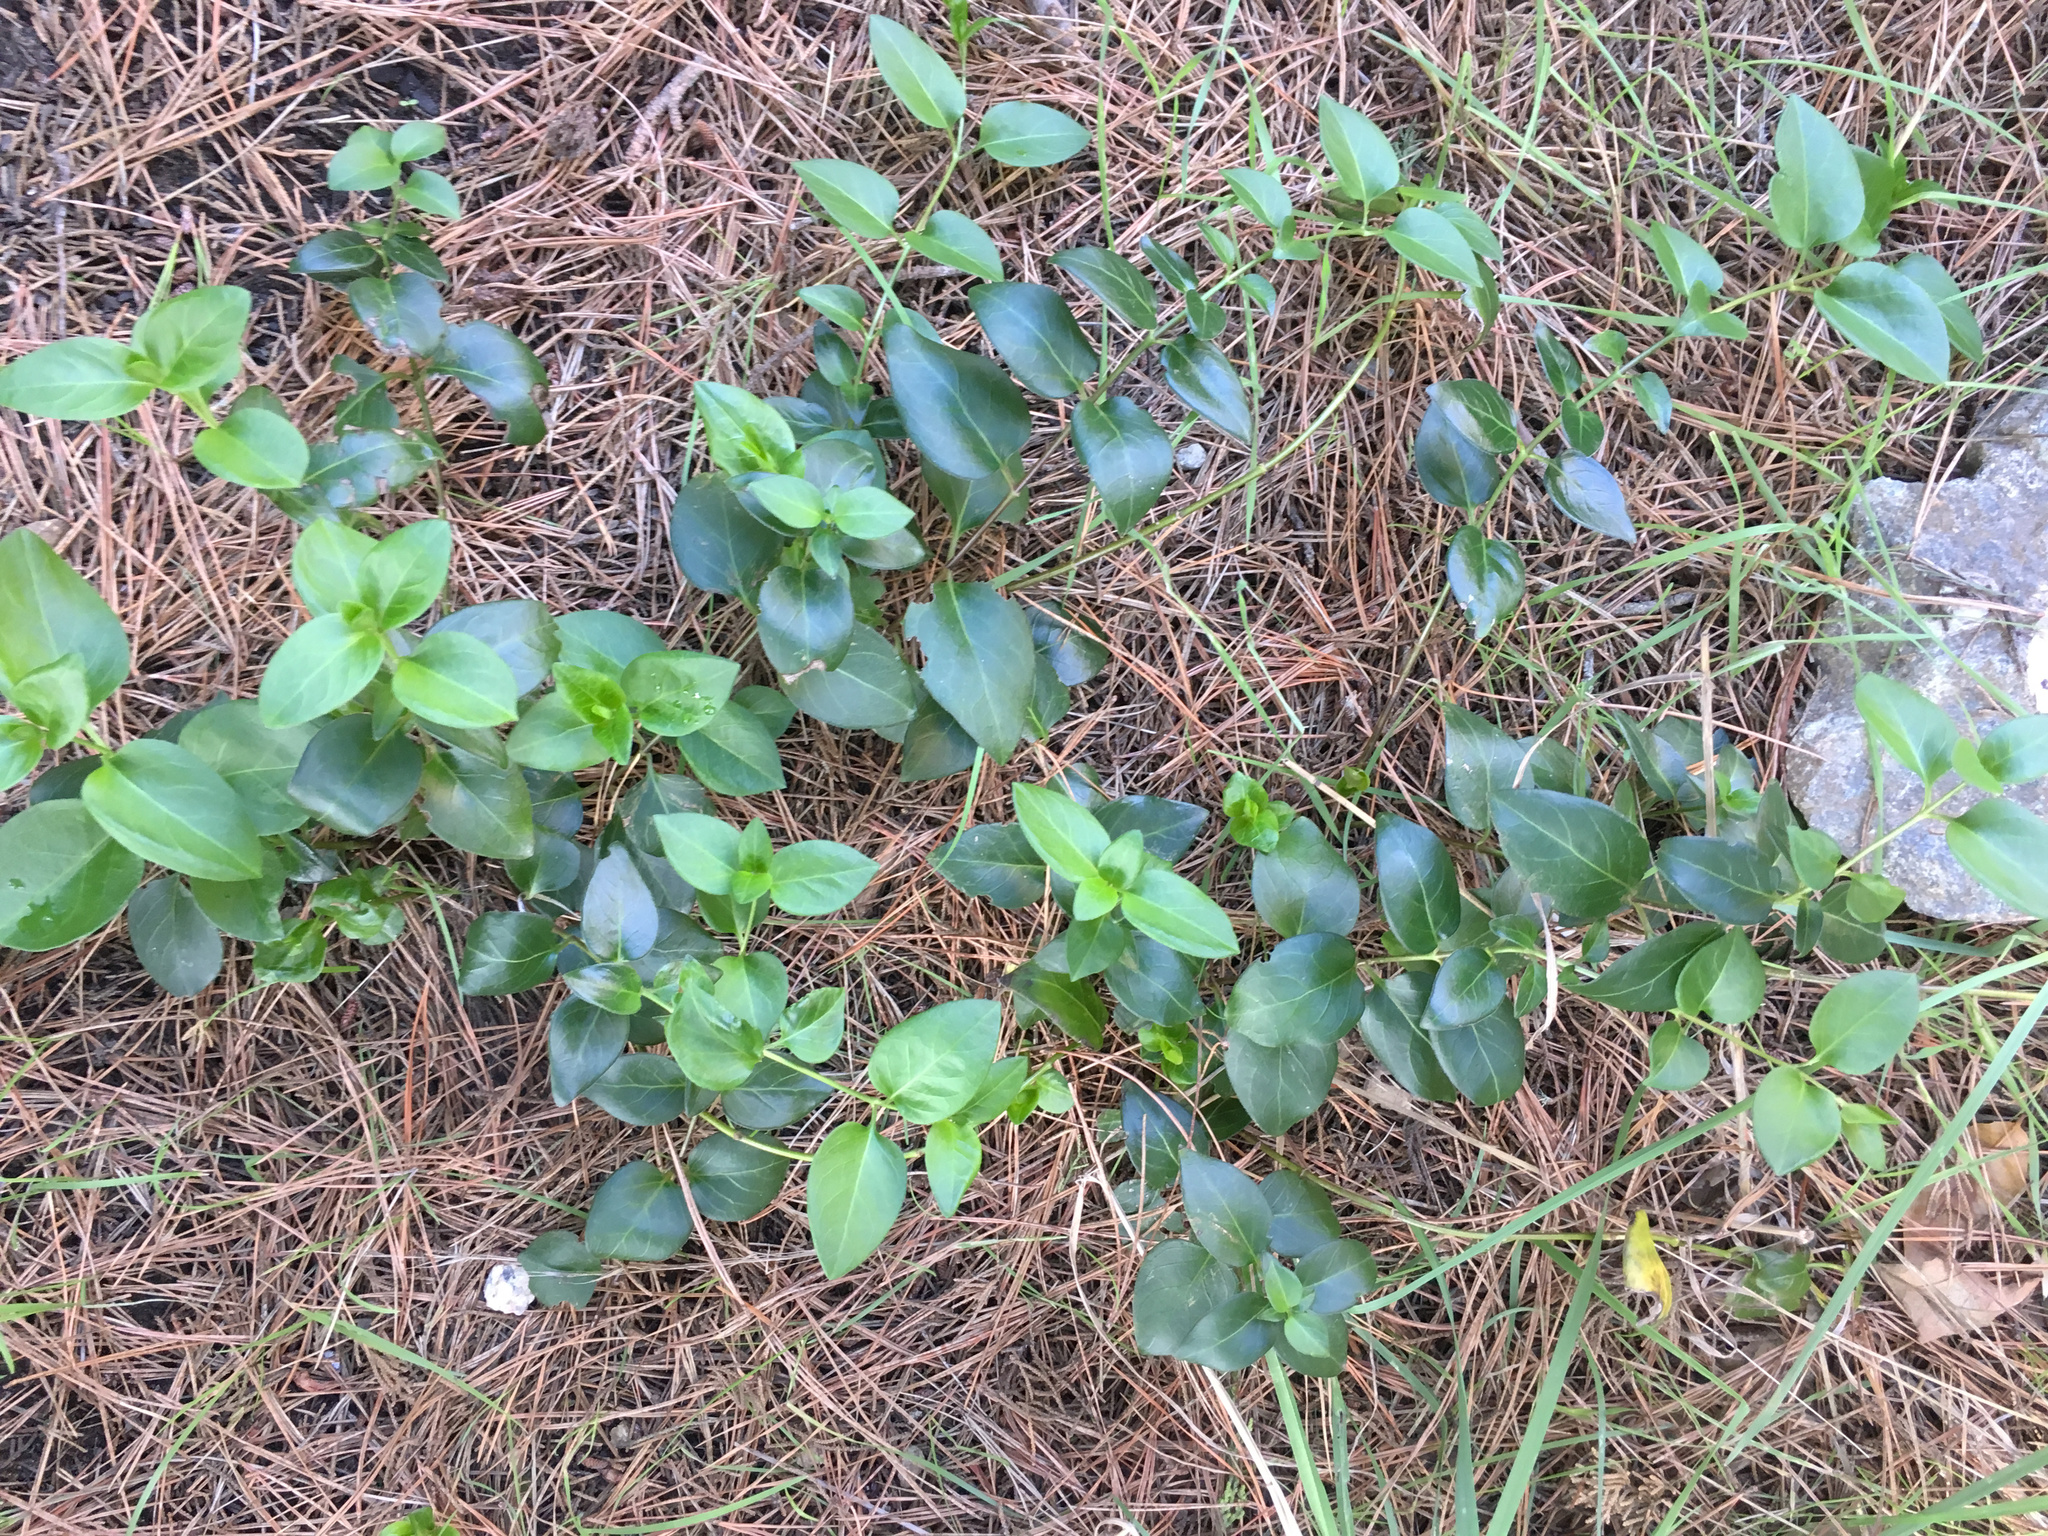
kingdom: Plantae
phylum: Tracheophyta
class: Magnoliopsida
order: Gentianales
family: Apocynaceae
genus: Vinca
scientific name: Vinca major
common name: Greater periwinkle
